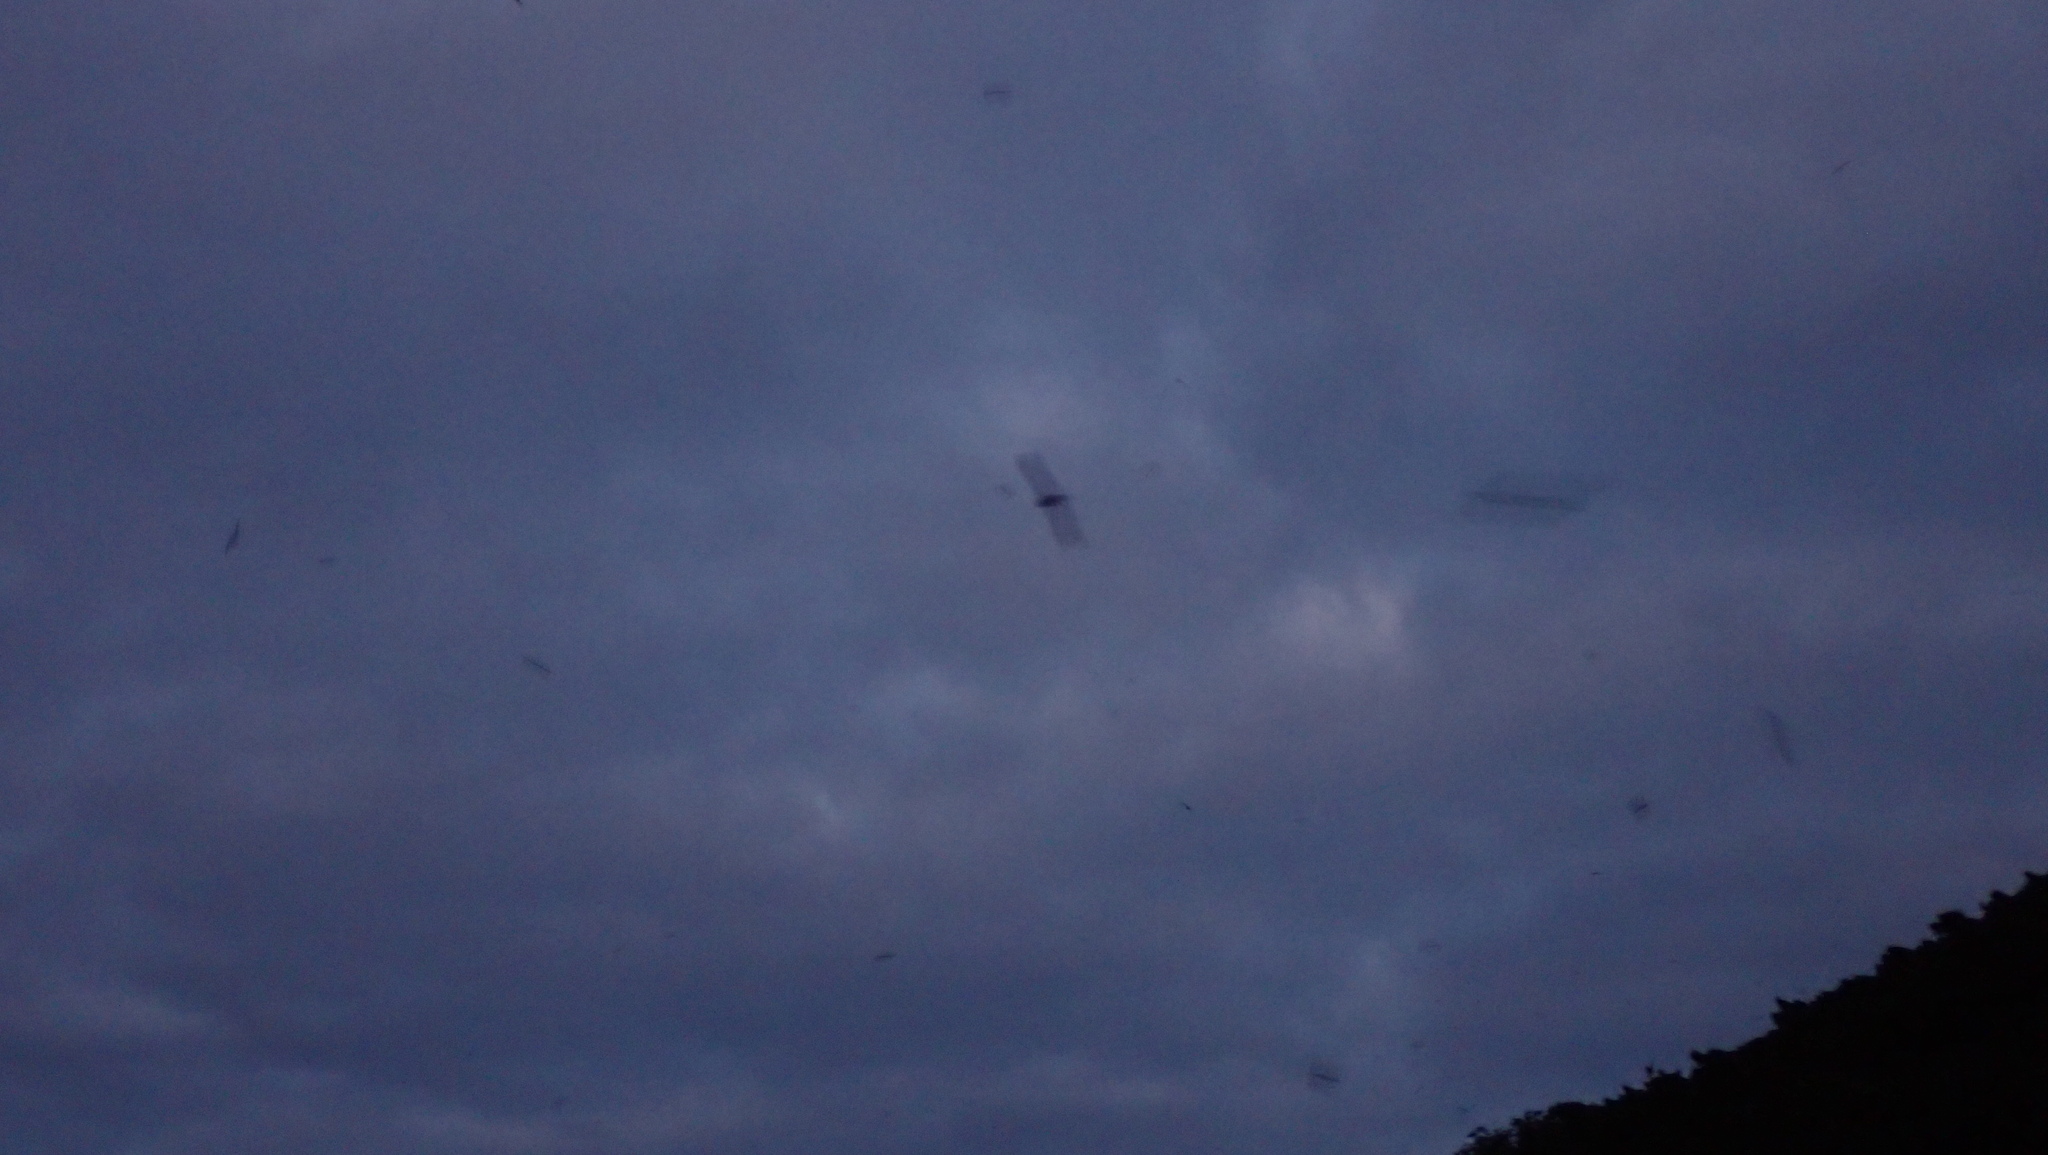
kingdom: Animalia
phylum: Chordata
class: Aves
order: Procellariiformes
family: Procellariidae
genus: Puffinus
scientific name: Puffinus carneipes
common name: Flesh-footed shearwater
